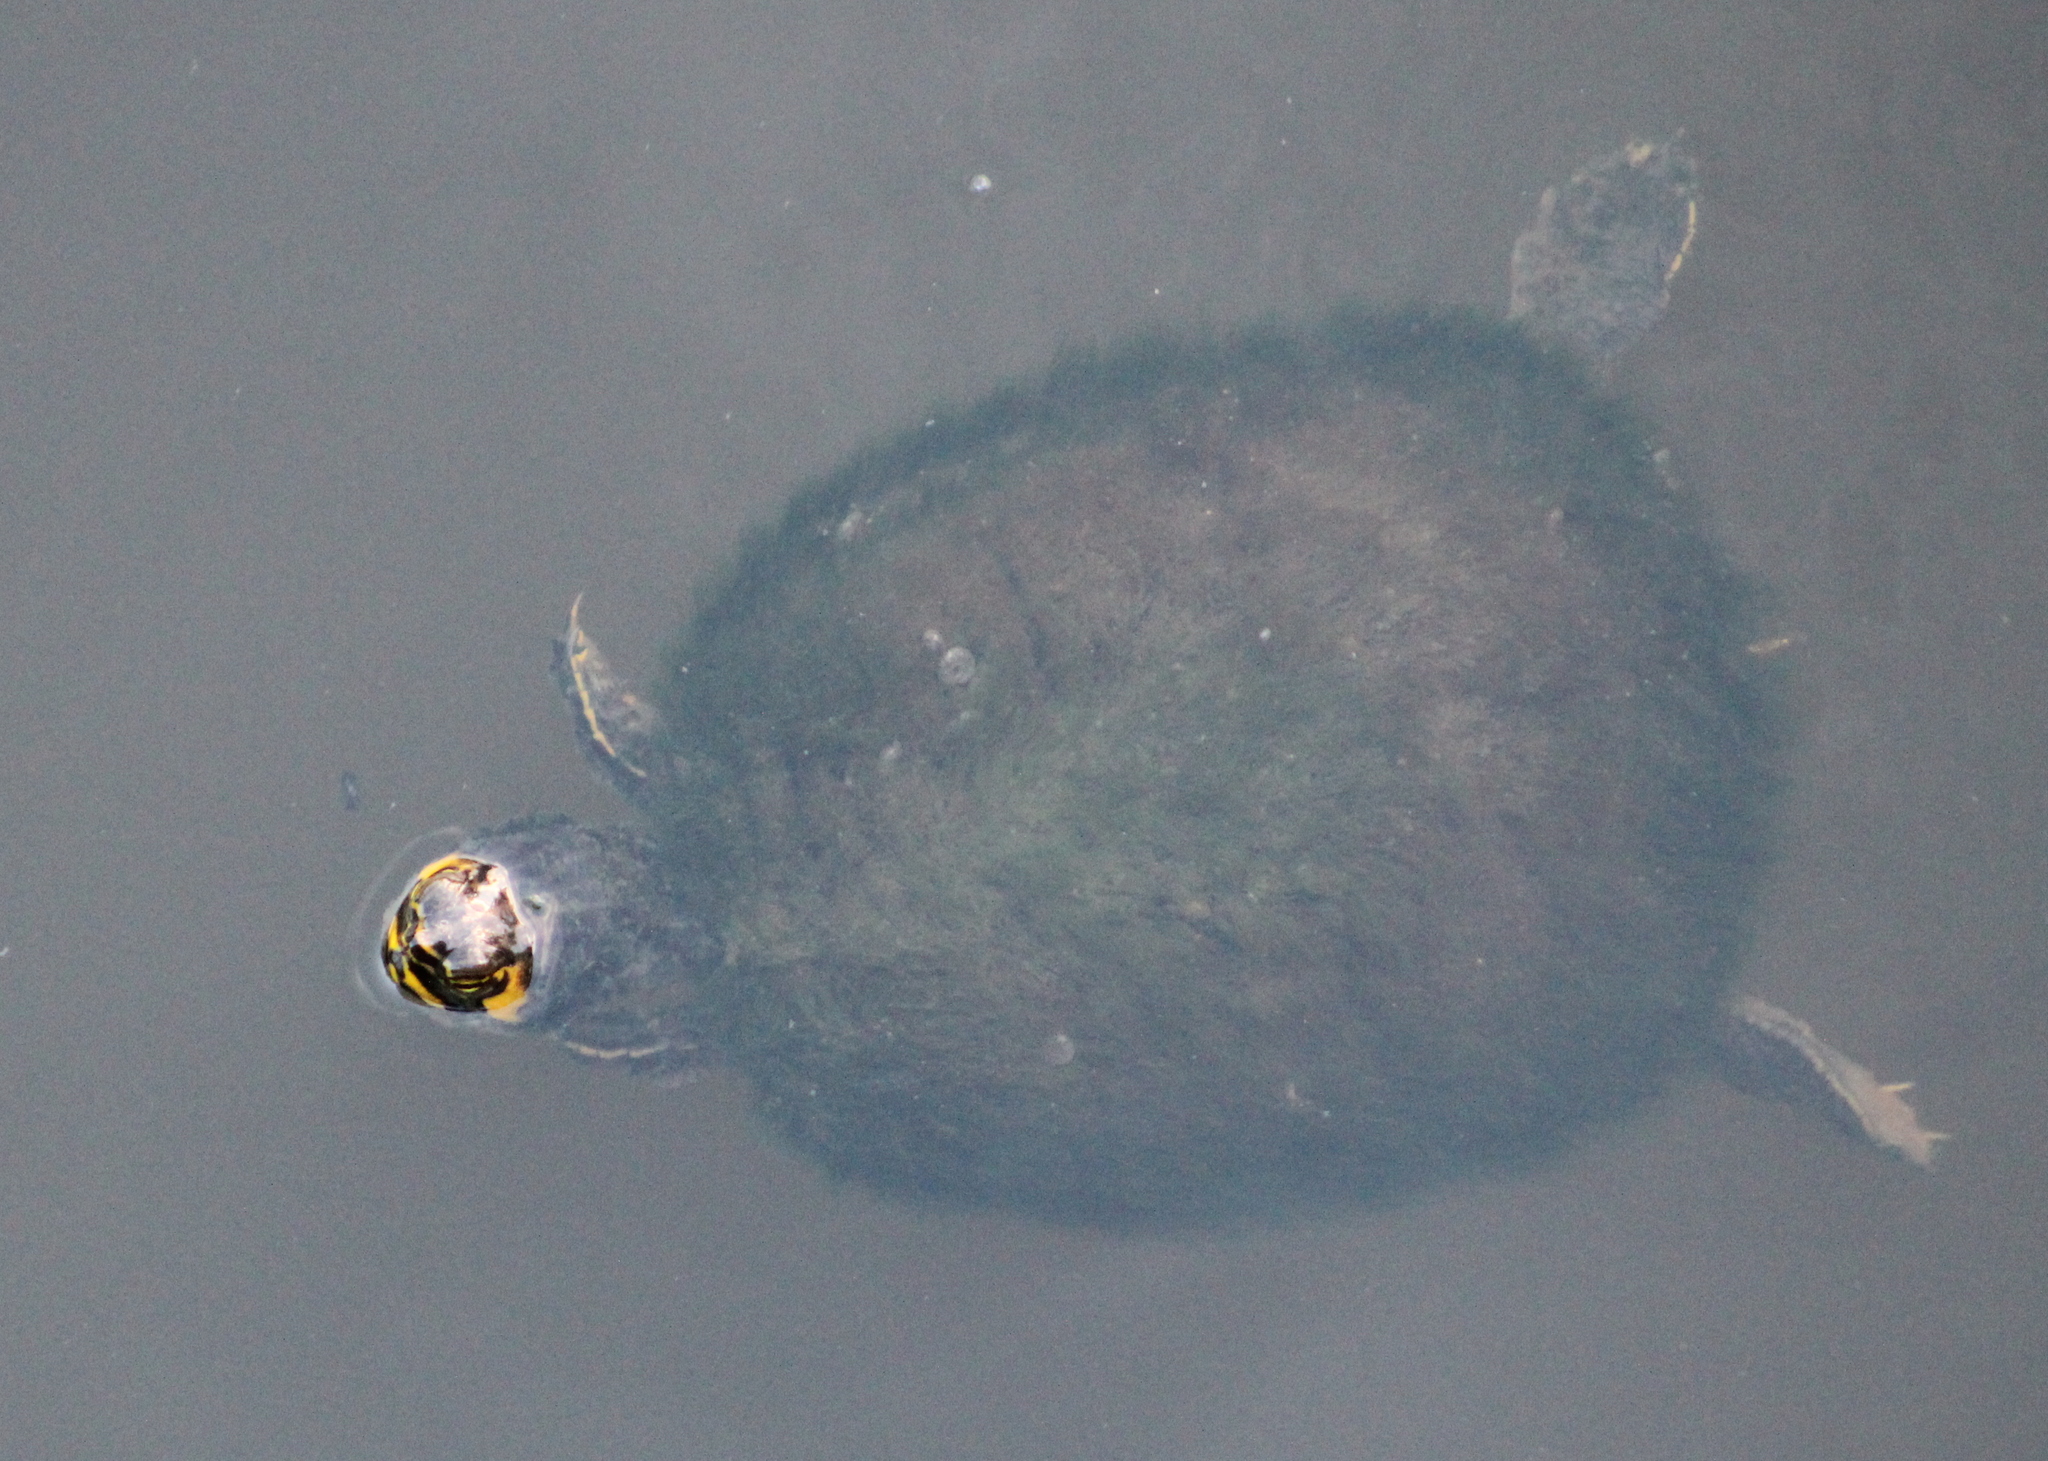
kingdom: Animalia
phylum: Chordata
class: Testudines
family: Emydidae
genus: Trachemys
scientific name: Trachemys scripta
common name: Slider
